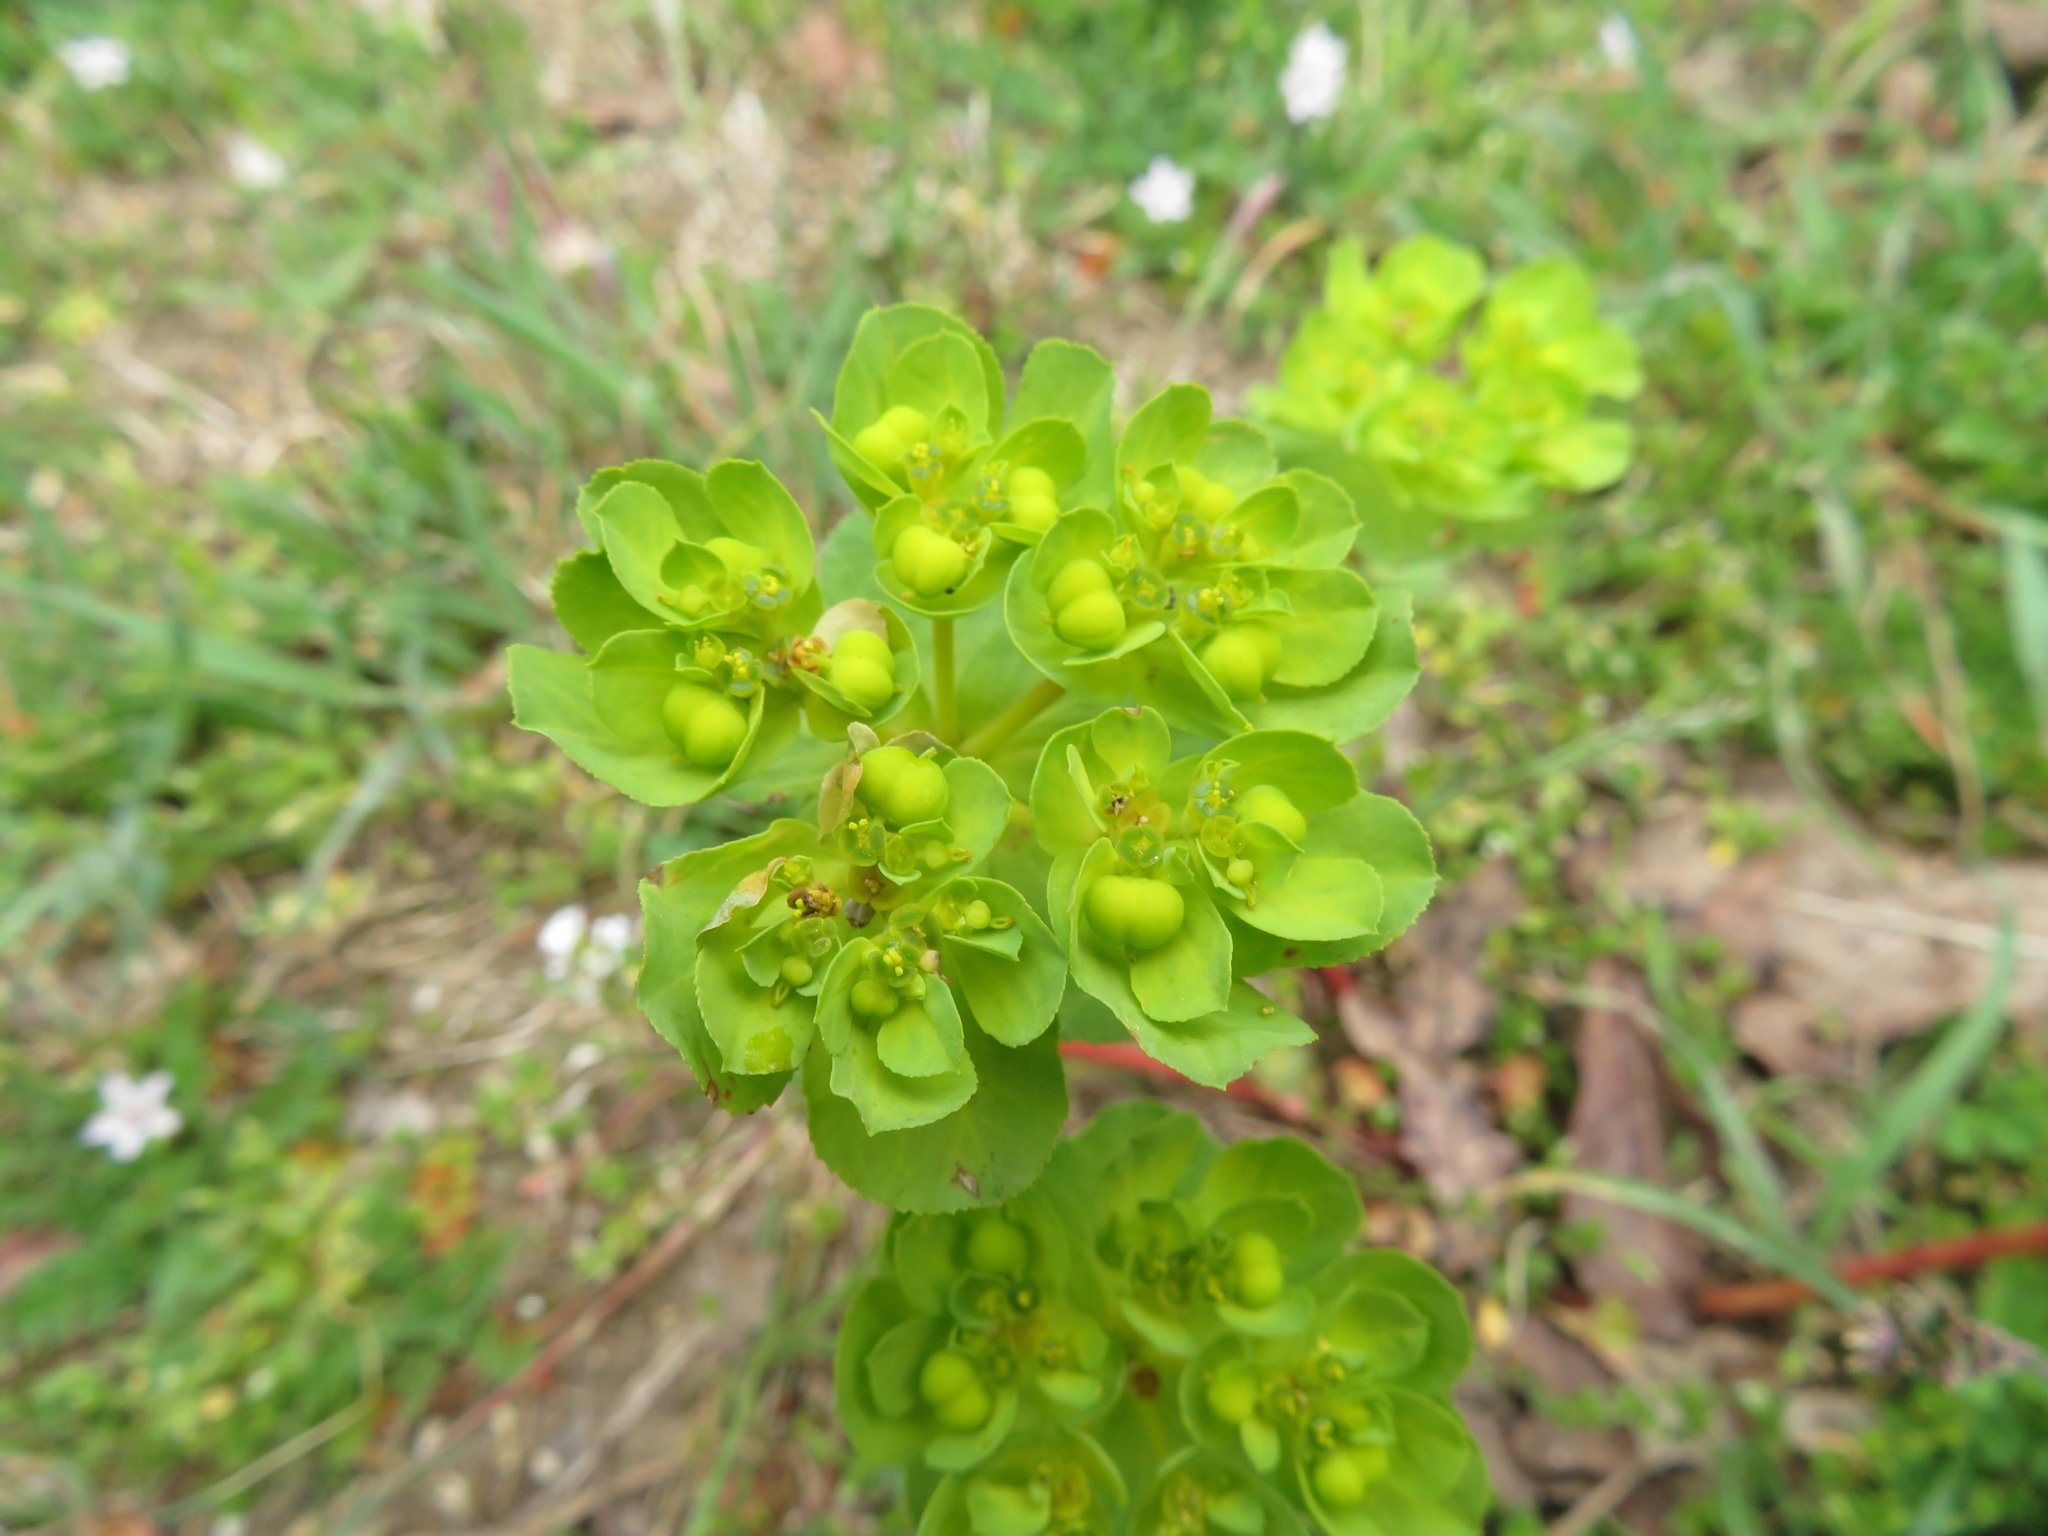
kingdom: Plantae
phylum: Tracheophyta
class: Magnoliopsida
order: Malpighiales
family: Euphorbiaceae
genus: Euphorbia
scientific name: Euphorbia helioscopia
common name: Sun spurge
